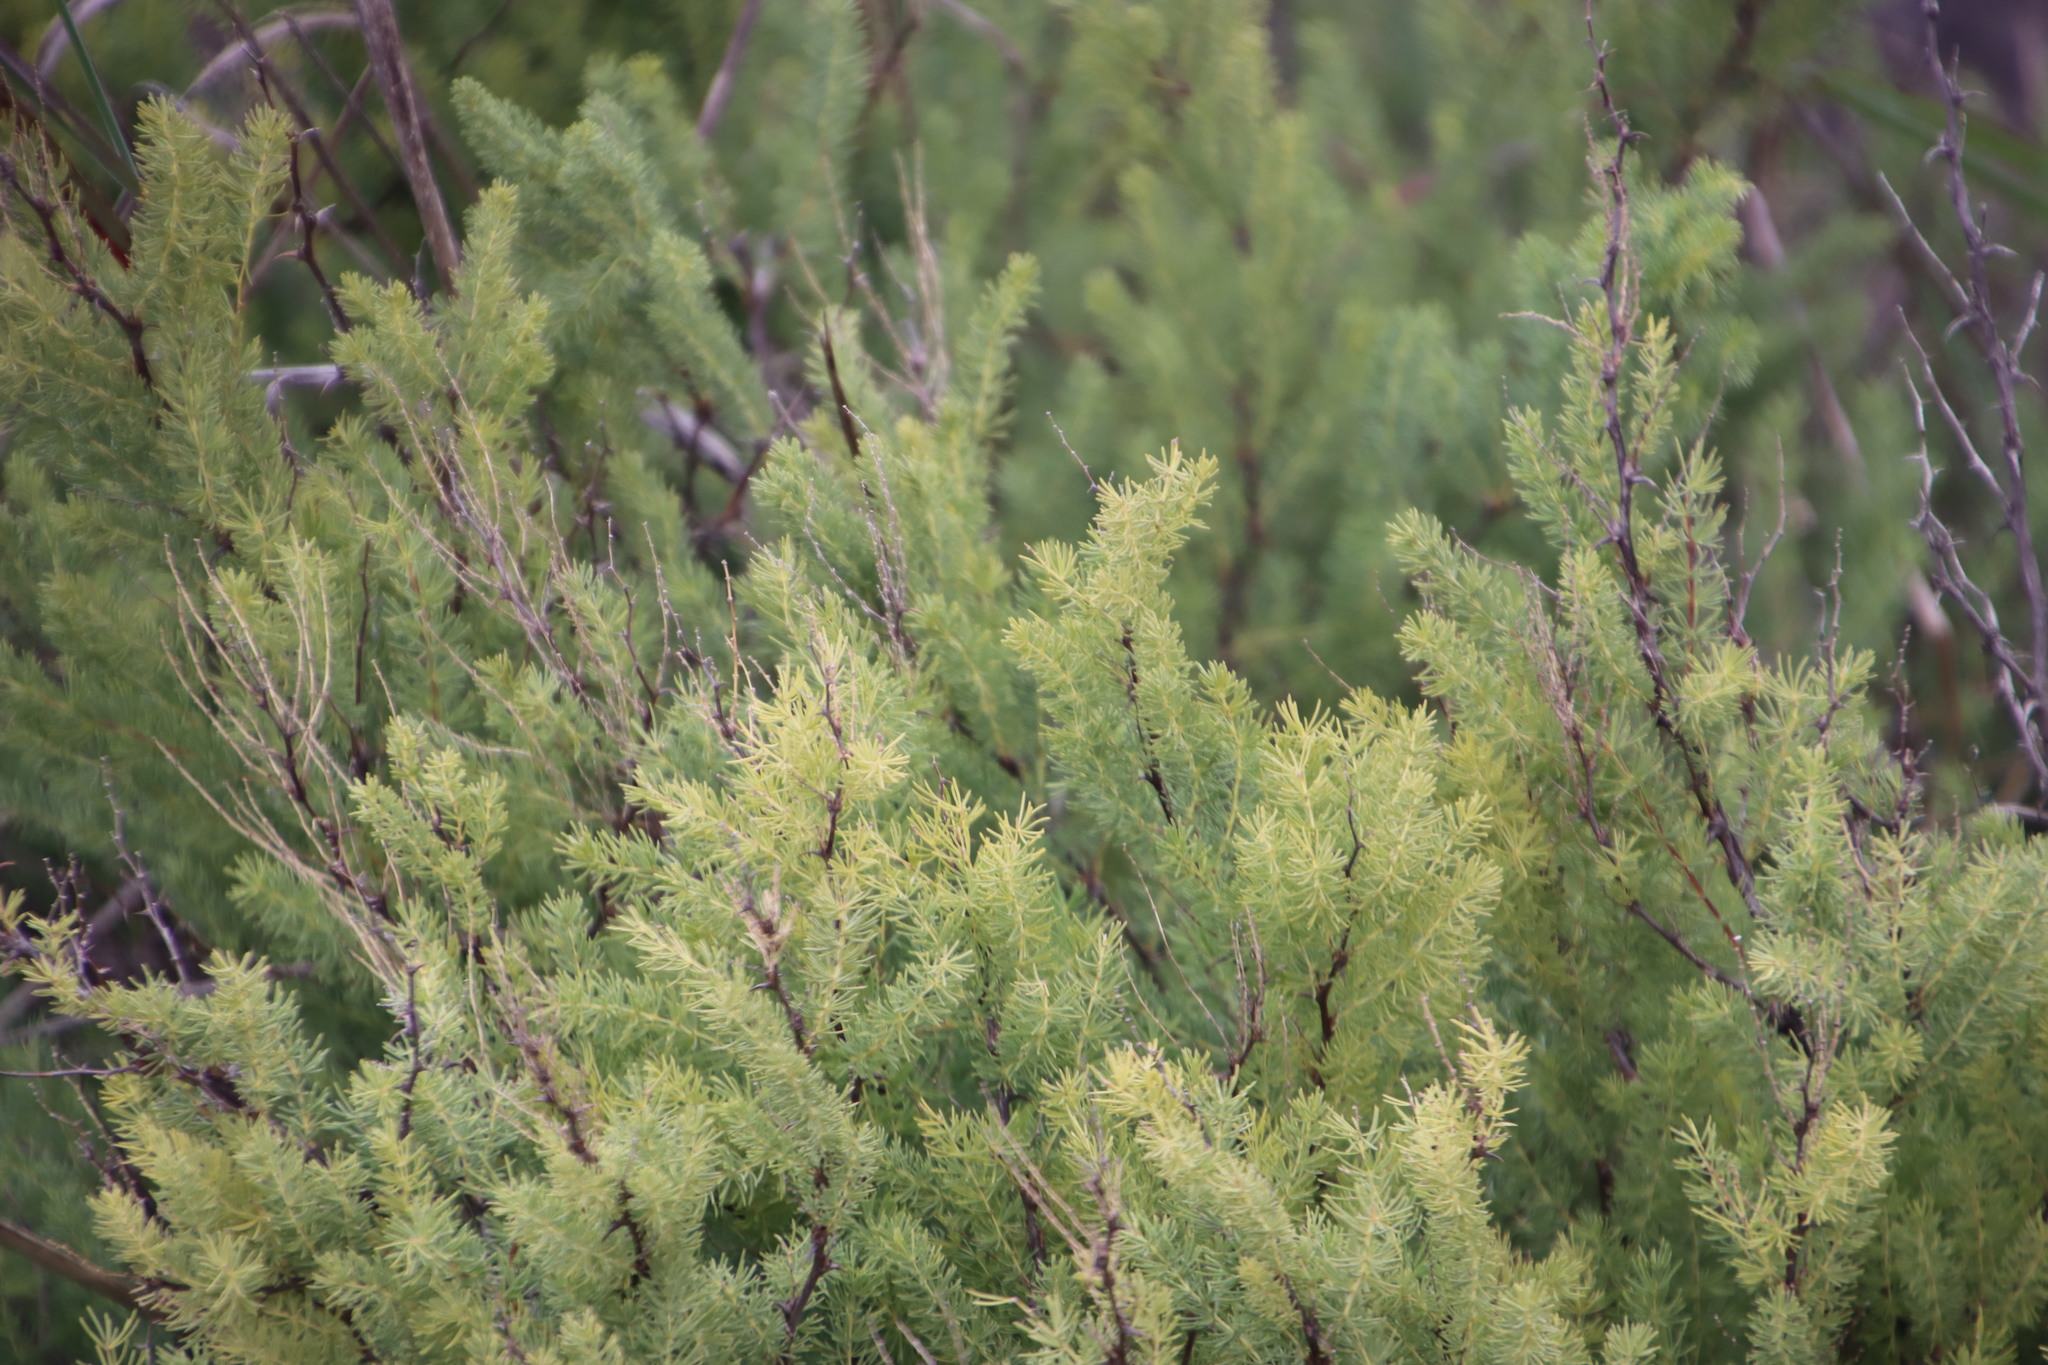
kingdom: Plantae
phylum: Tracheophyta
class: Liliopsida
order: Asparagales
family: Asparagaceae
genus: Asparagus
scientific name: Asparagus rubicundus
